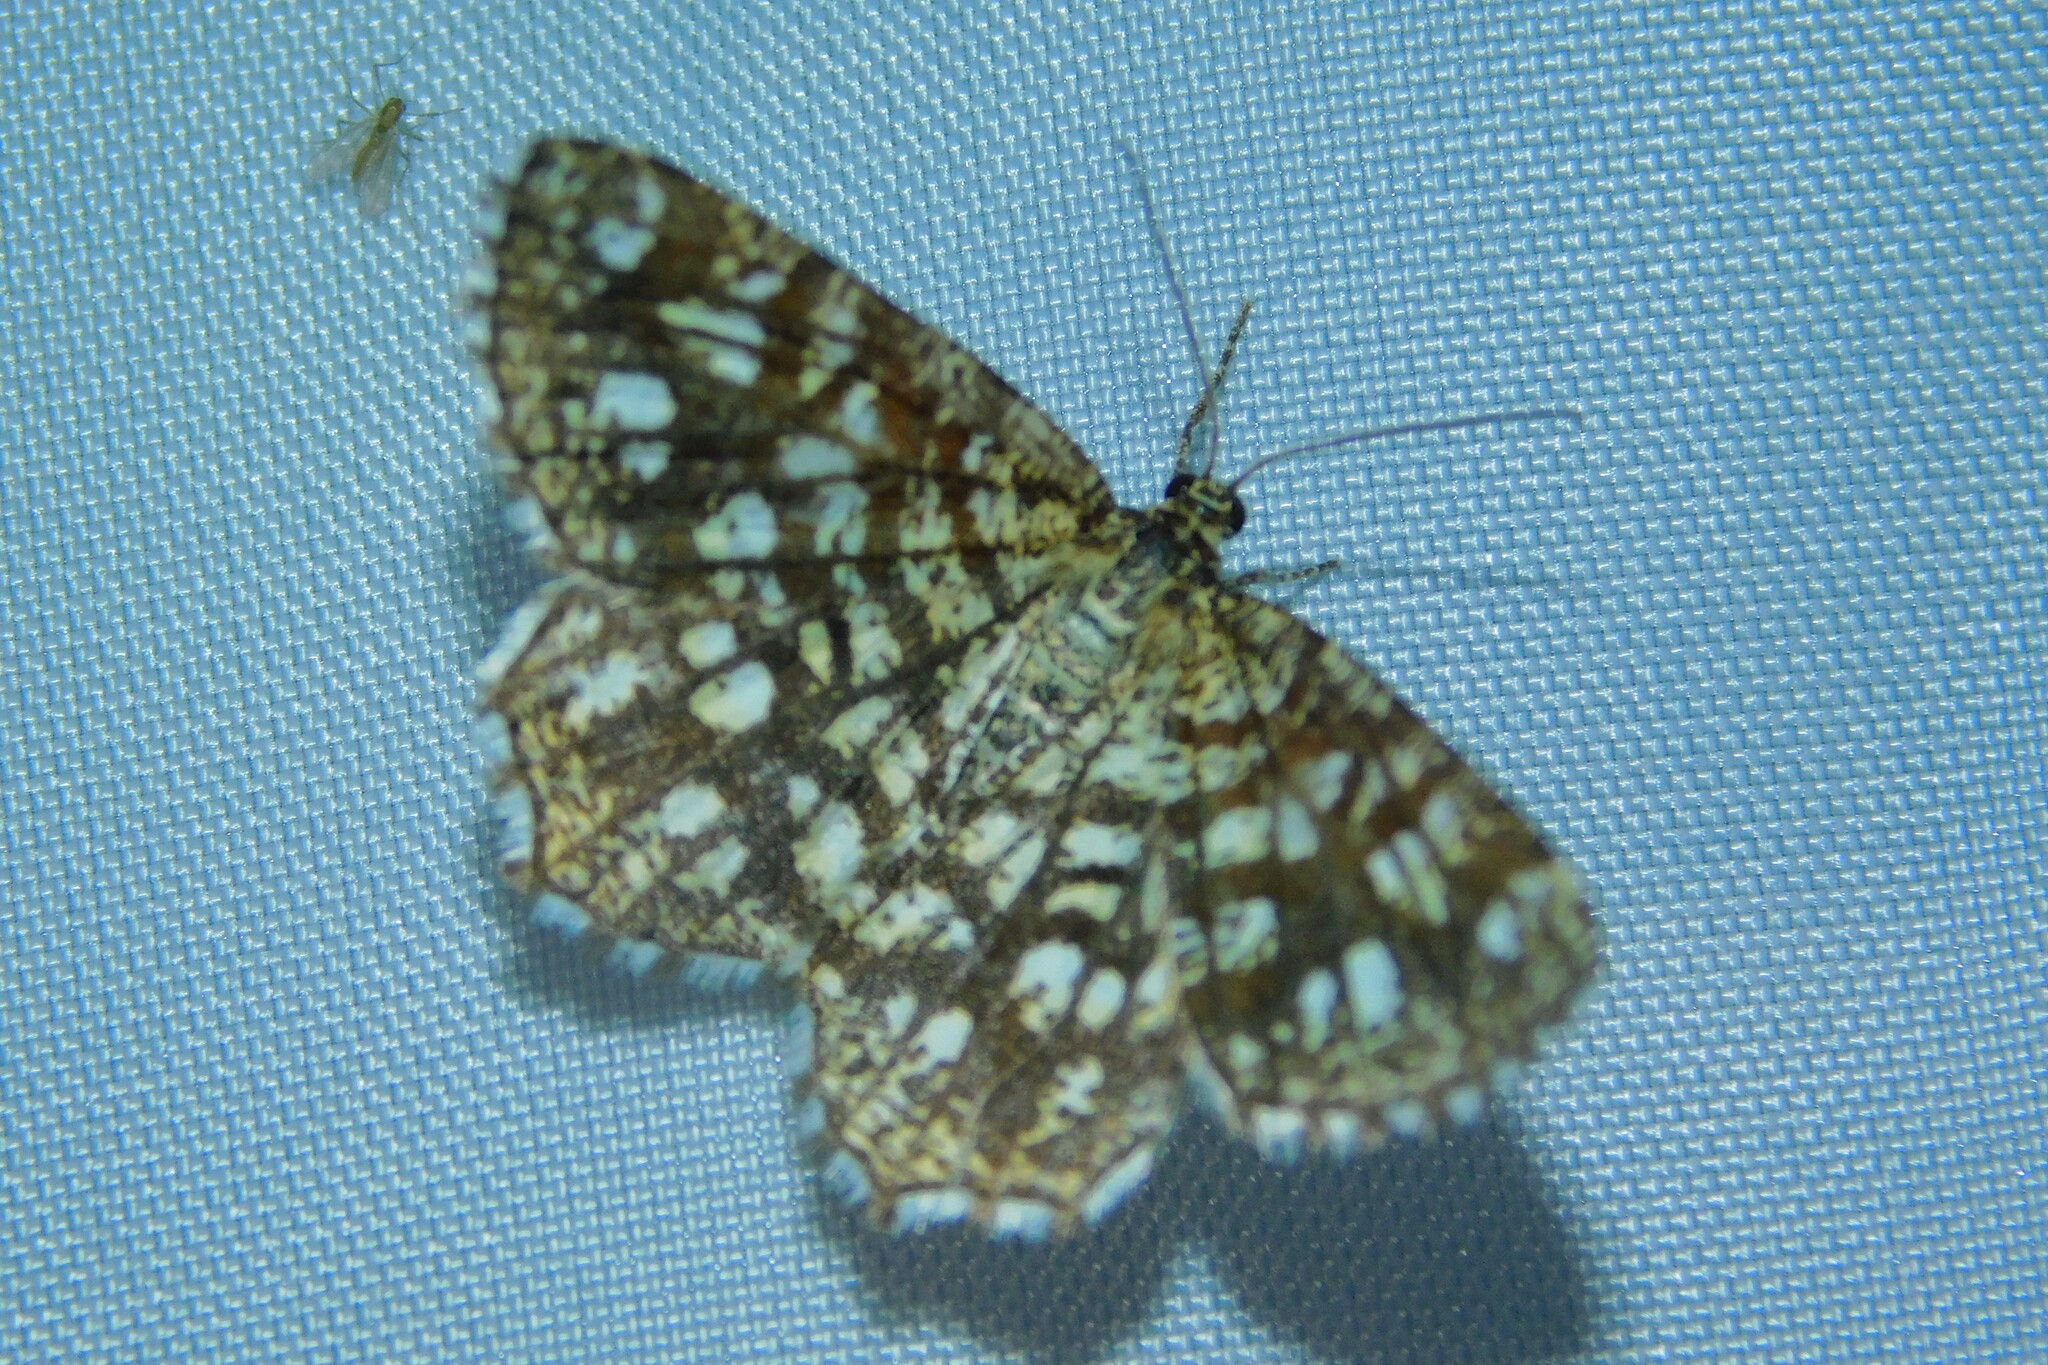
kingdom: Animalia
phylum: Arthropoda
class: Insecta
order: Lepidoptera
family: Geometridae
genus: Chiasmia
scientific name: Chiasmia clathrata
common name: Latticed heath
